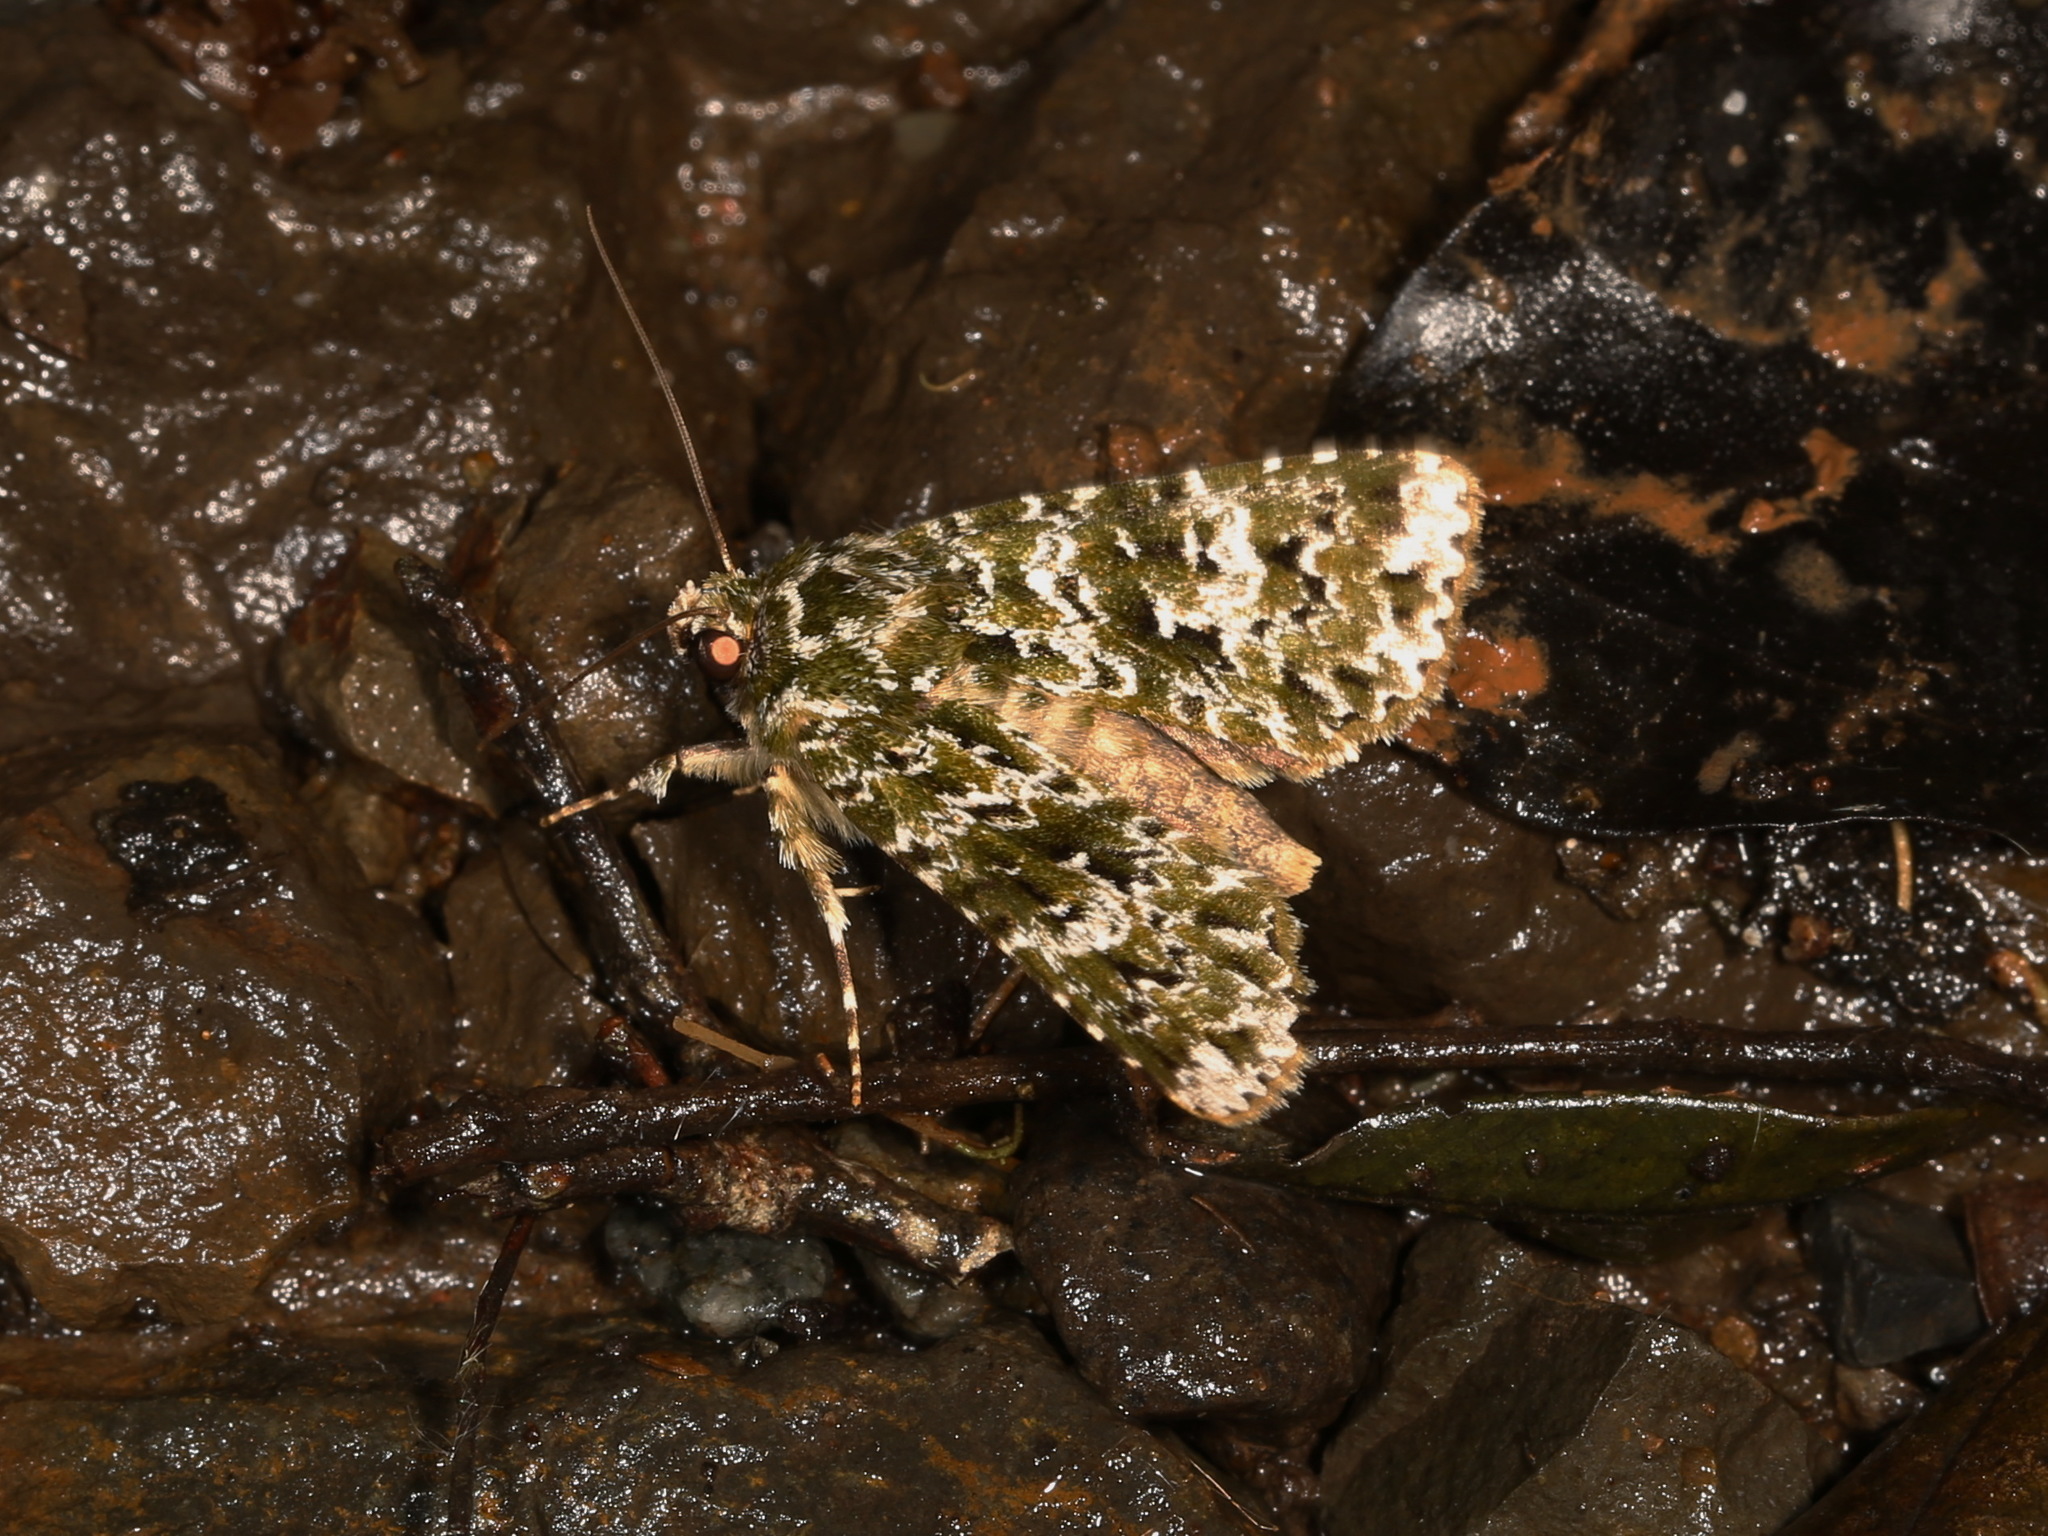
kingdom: Animalia
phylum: Arthropoda
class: Insecta
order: Lepidoptera
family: Noctuidae
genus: Thalatha
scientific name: Thalatha bryochlora
